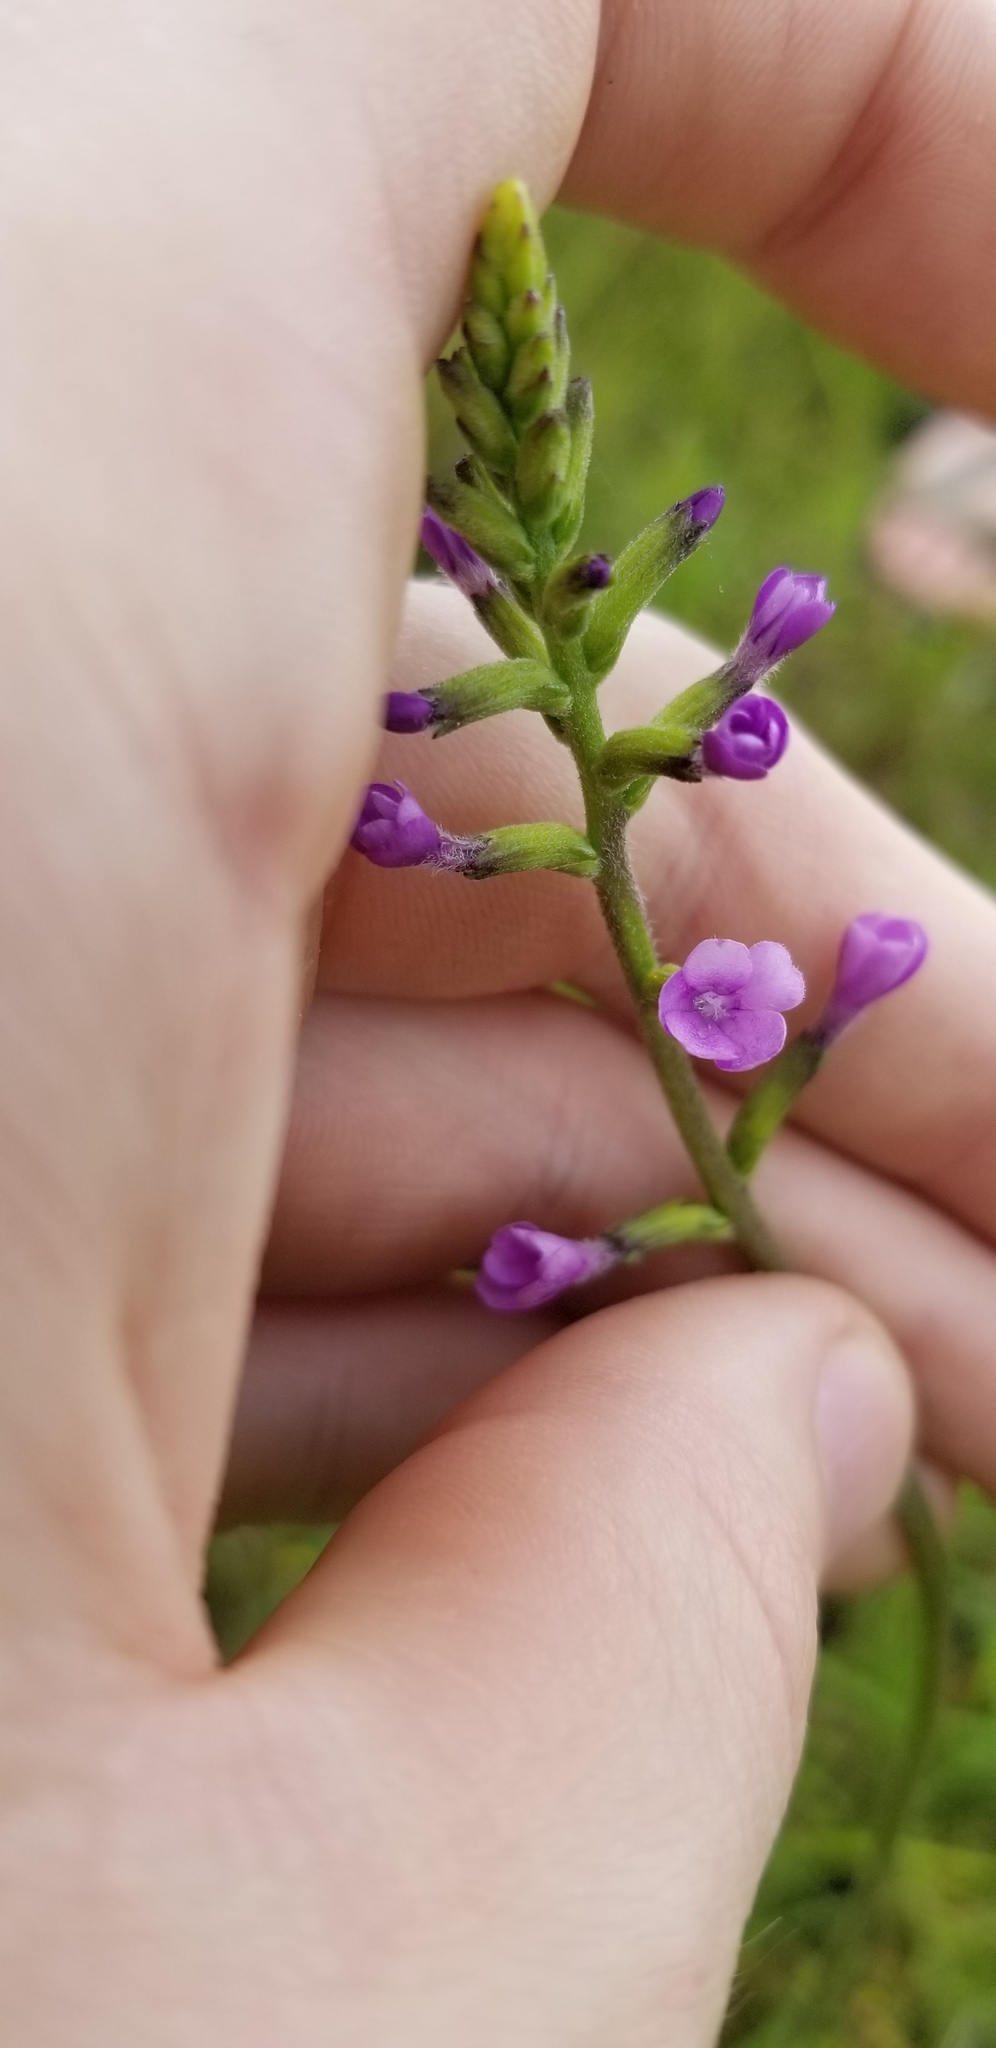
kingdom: Plantae
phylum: Tracheophyta
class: Magnoliopsida
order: Lamiales
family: Orobanchaceae
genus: Buchnera
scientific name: Buchnera floridana
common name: Florida bluehearts
